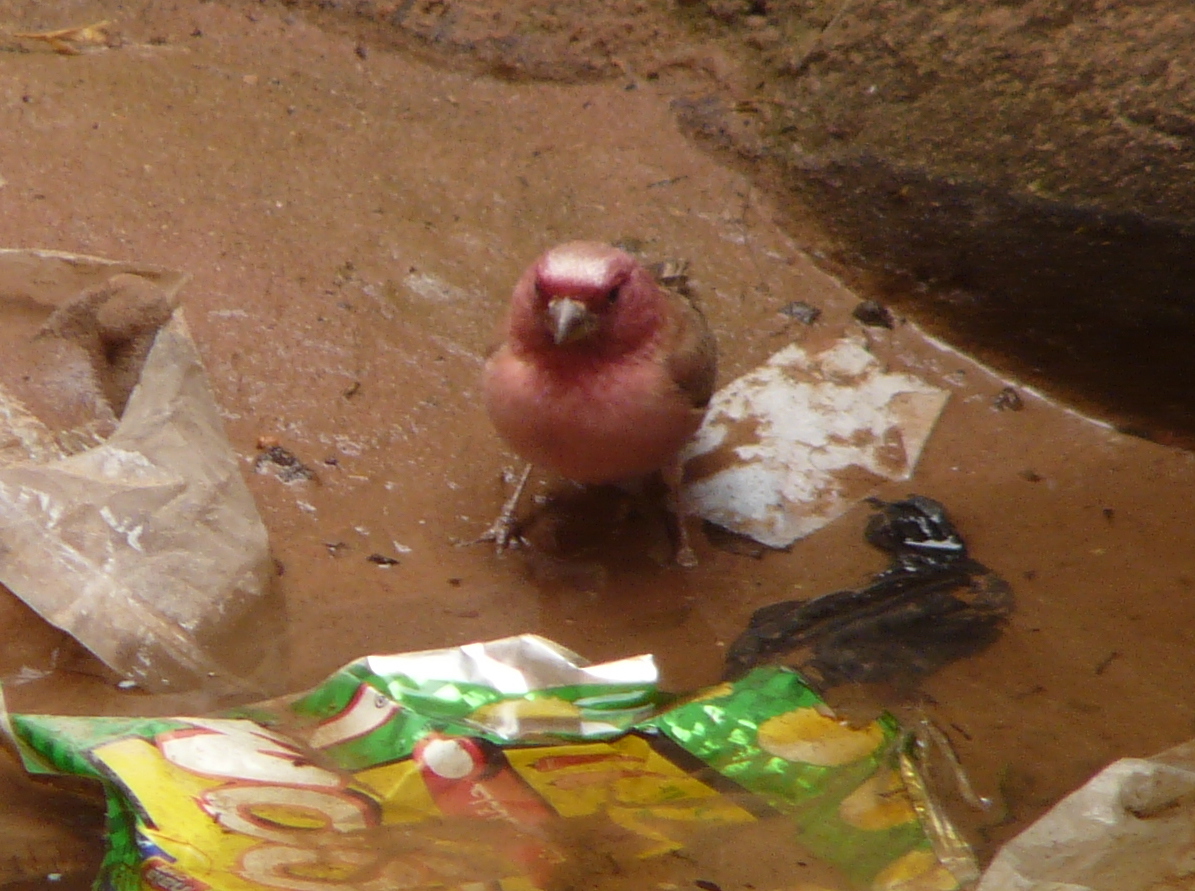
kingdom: Animalia
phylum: Chordata
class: Aves
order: Passeriformes
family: Fringillidae
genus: Carpodacus
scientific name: Carpodacus synoicus
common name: Sinai rosefinch
